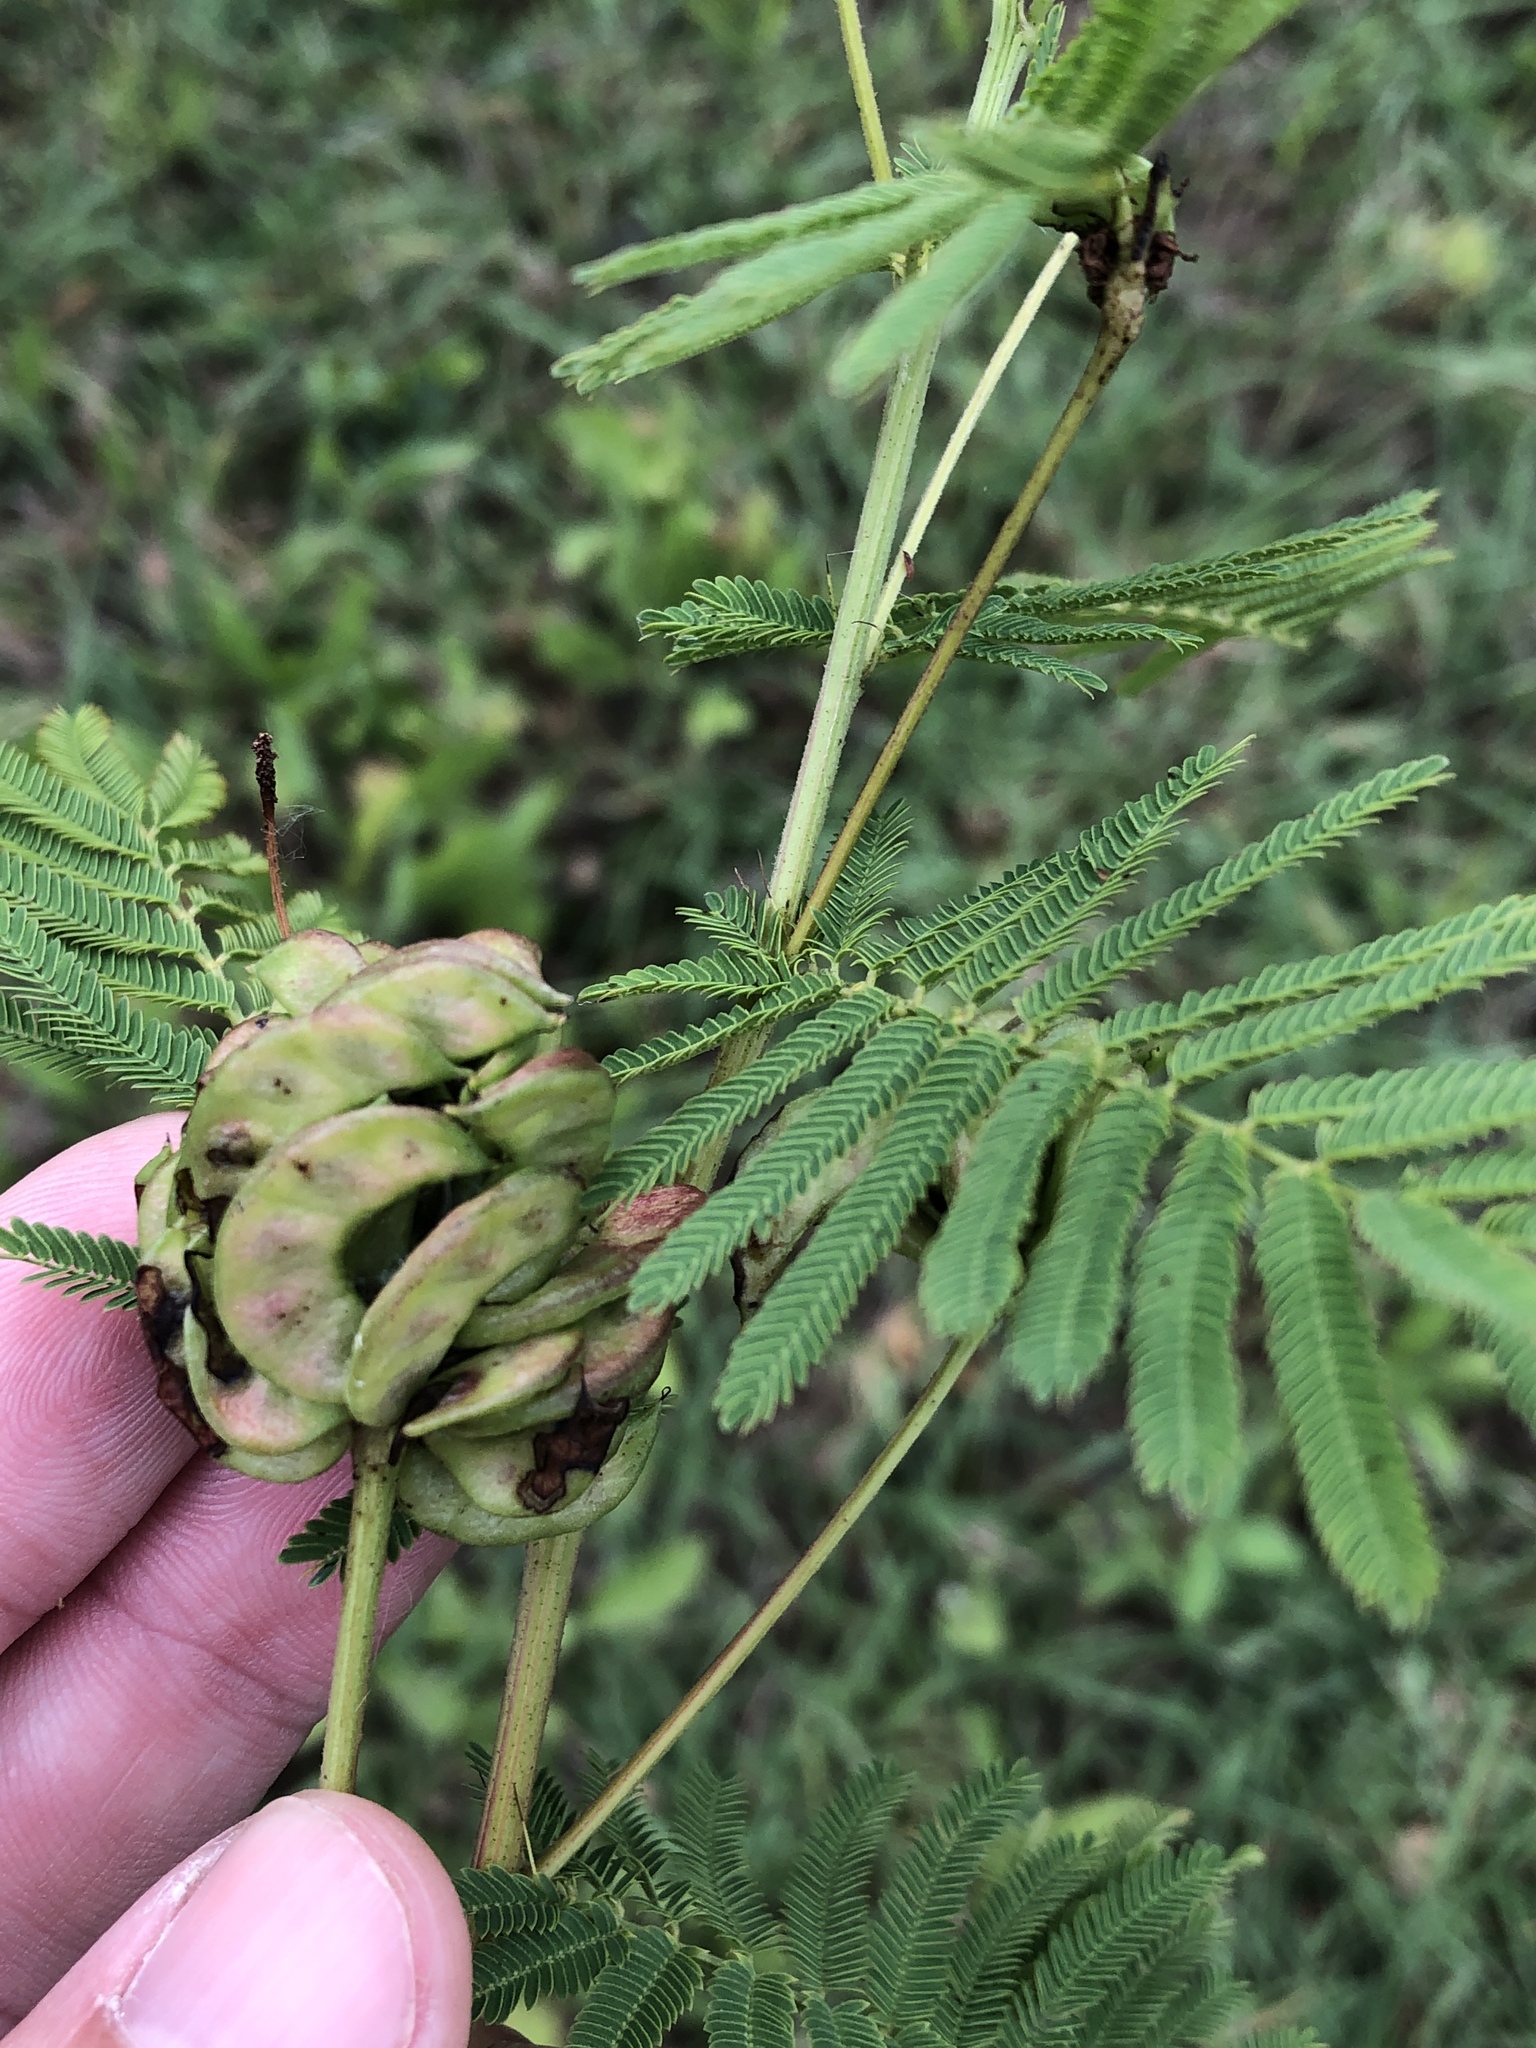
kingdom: Plantae
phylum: Tracheophyta
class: Magnoliopsida
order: Fabales
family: Fabaceae
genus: Desmanthus
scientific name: Desmanthus illinoensis
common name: Illinois bundle-flower
